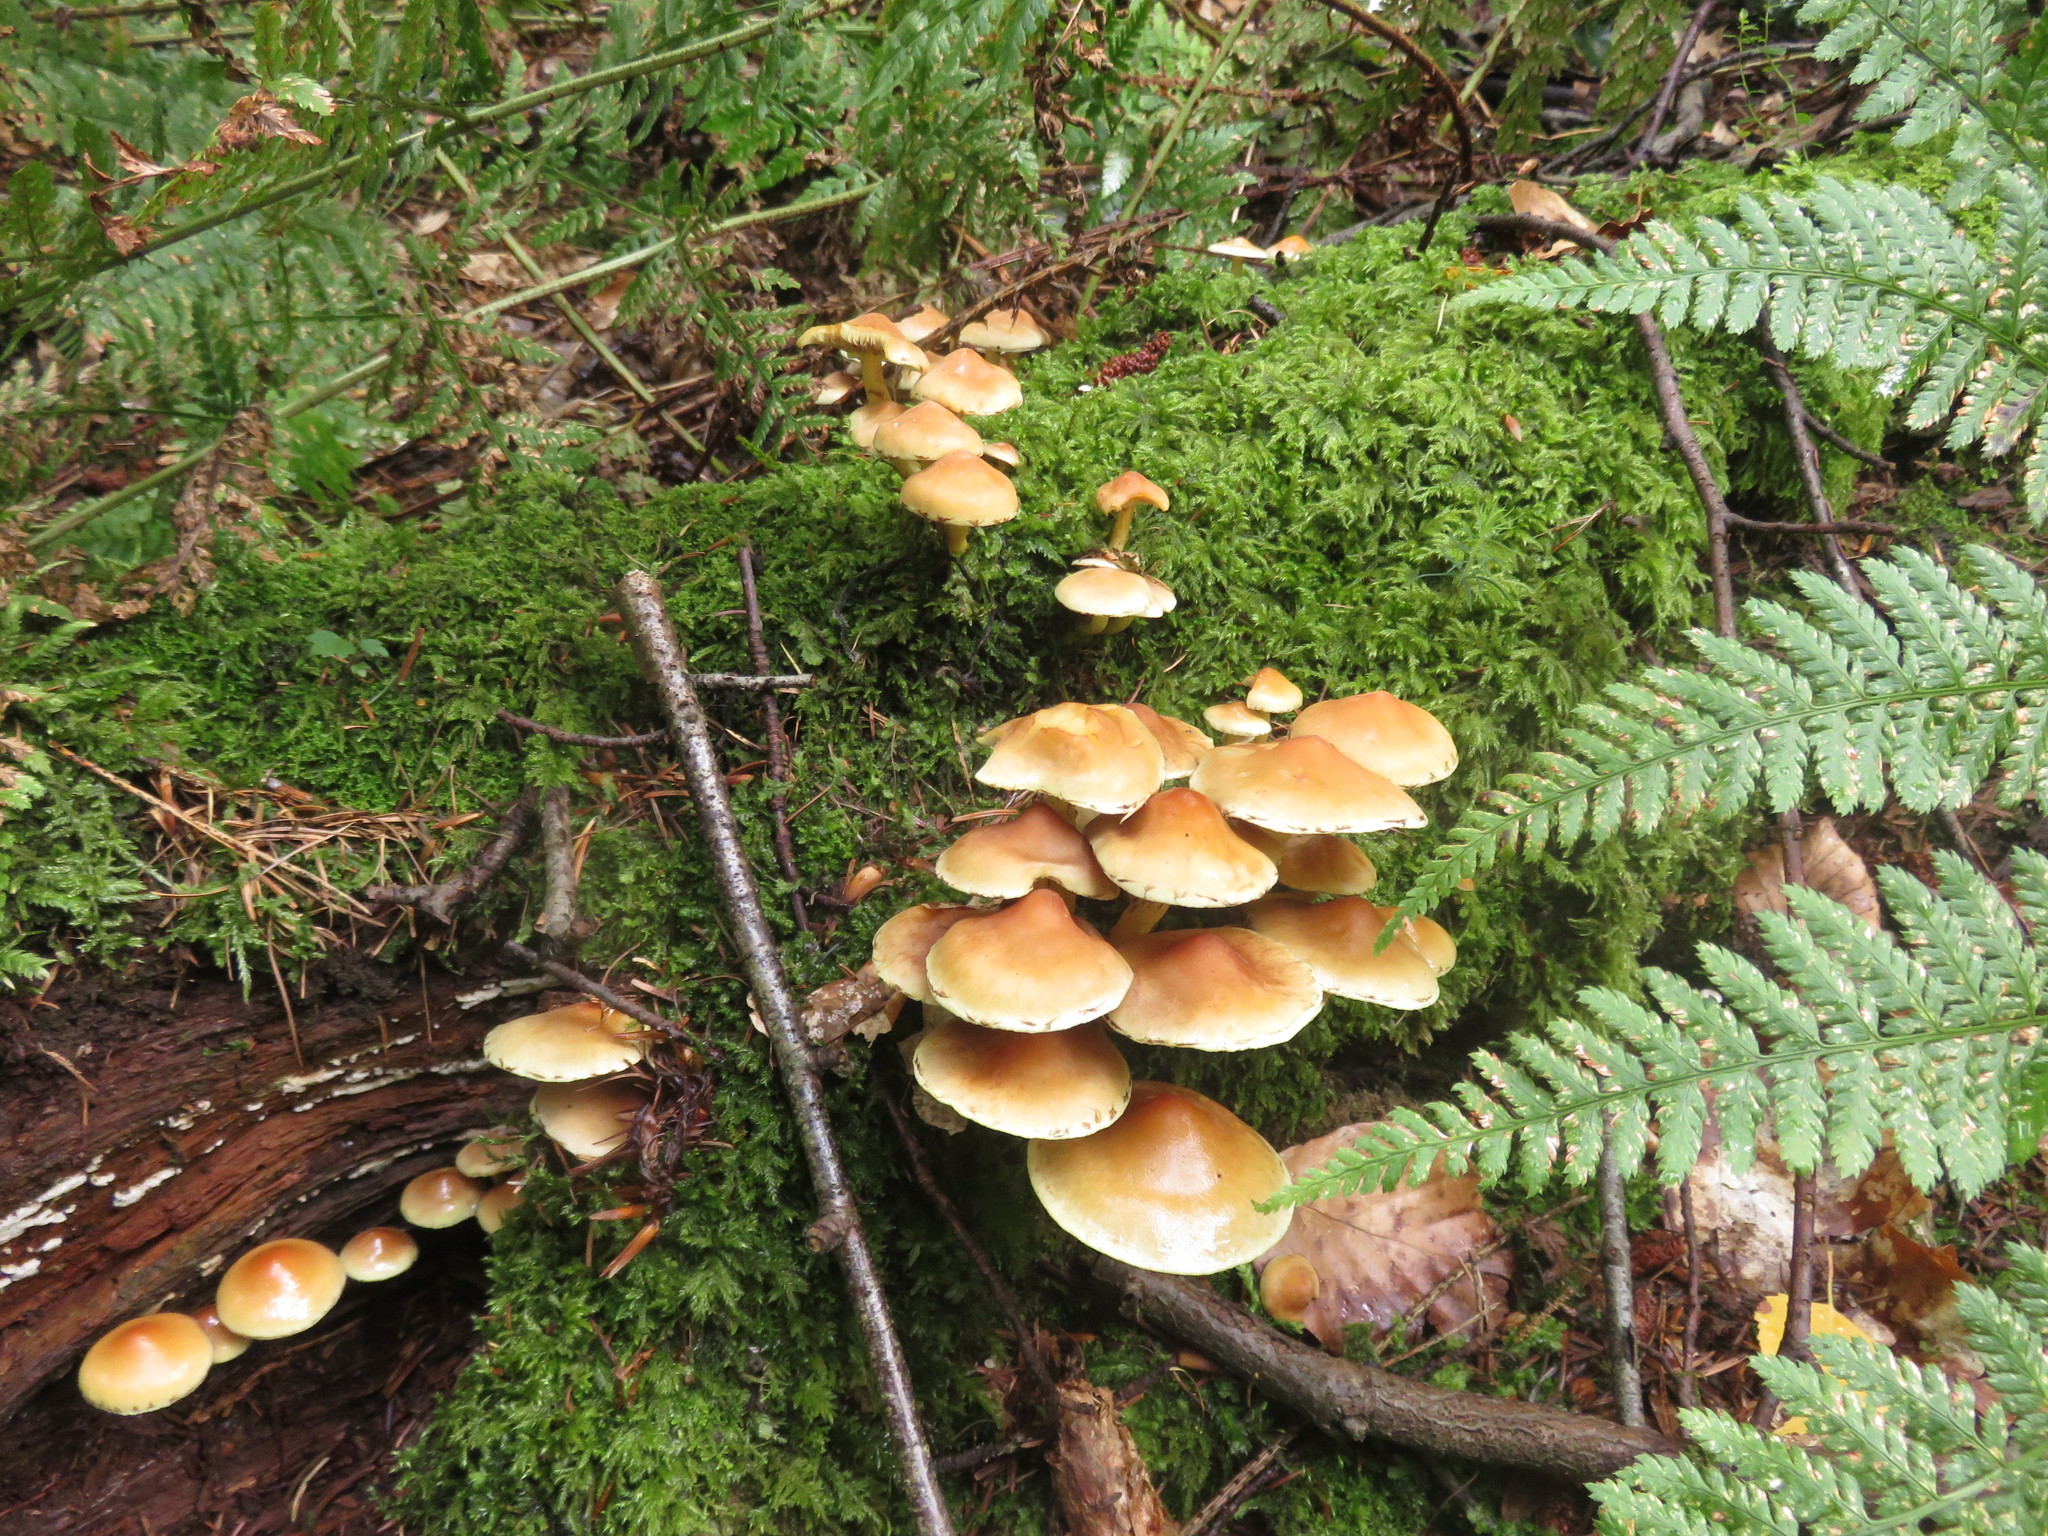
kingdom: Fungi
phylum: Basidiomycota
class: Agaricomycetes
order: Agaricales
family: Strophariaceae
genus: Hypholoma
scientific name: Hypholoma fasciculare
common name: Sulphur tuft
